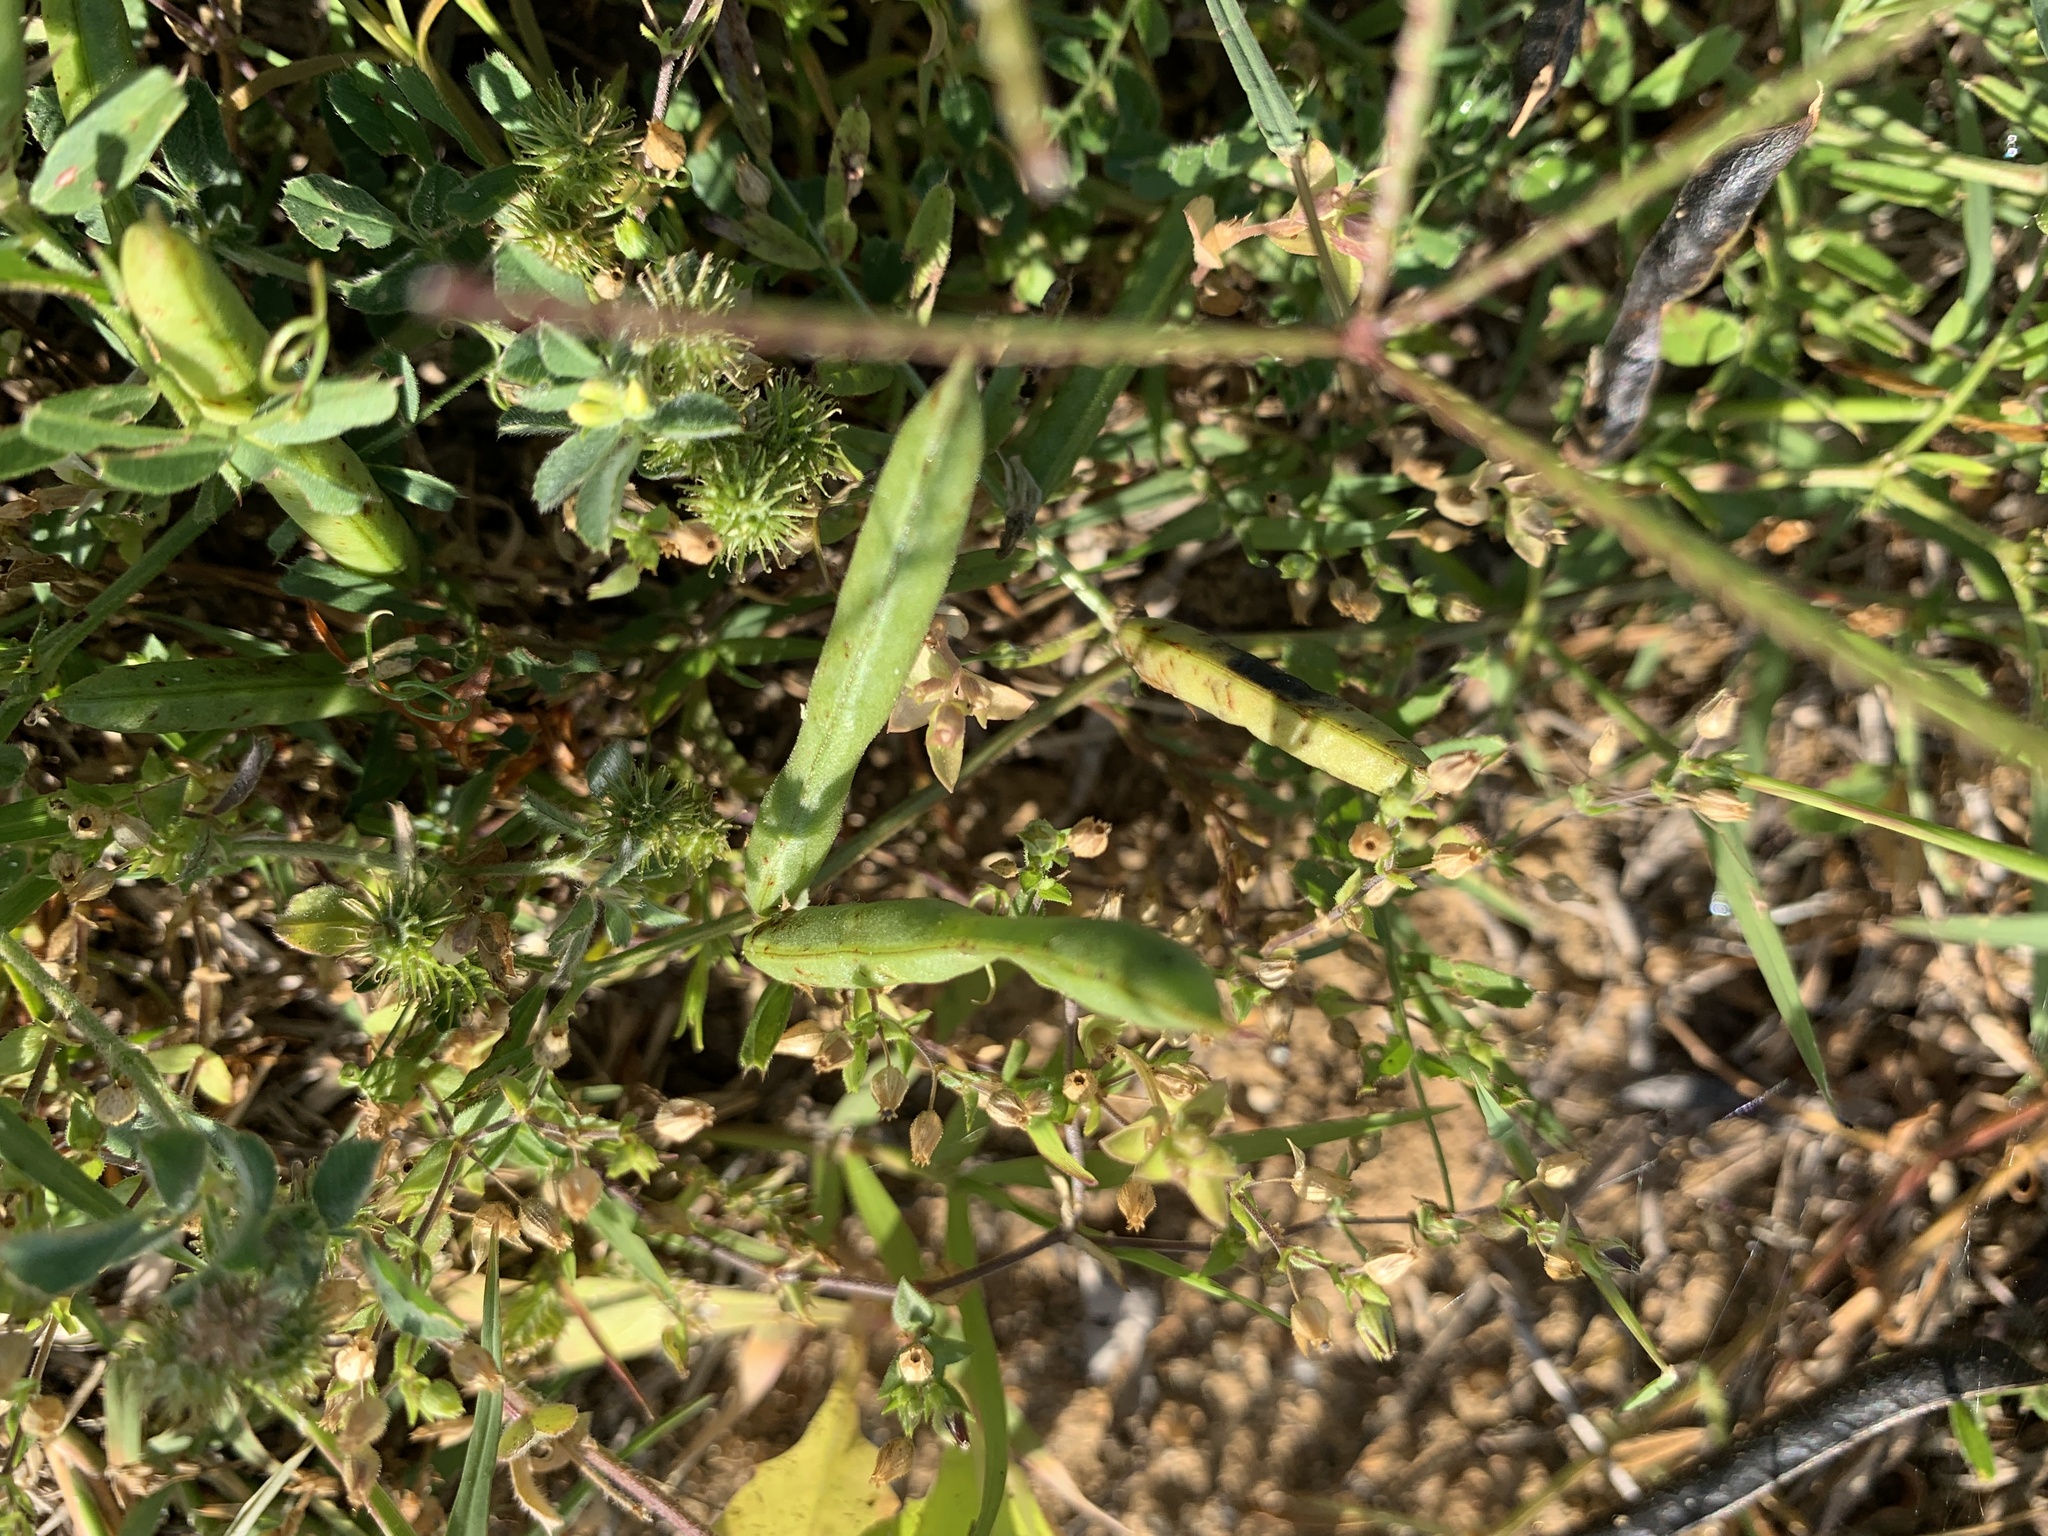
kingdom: Plantae
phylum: Tracheophyta
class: Magnoliopsida
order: Lamiales
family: Verbenaceae
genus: Verbena
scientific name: Verbena halei
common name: Texas vervain
